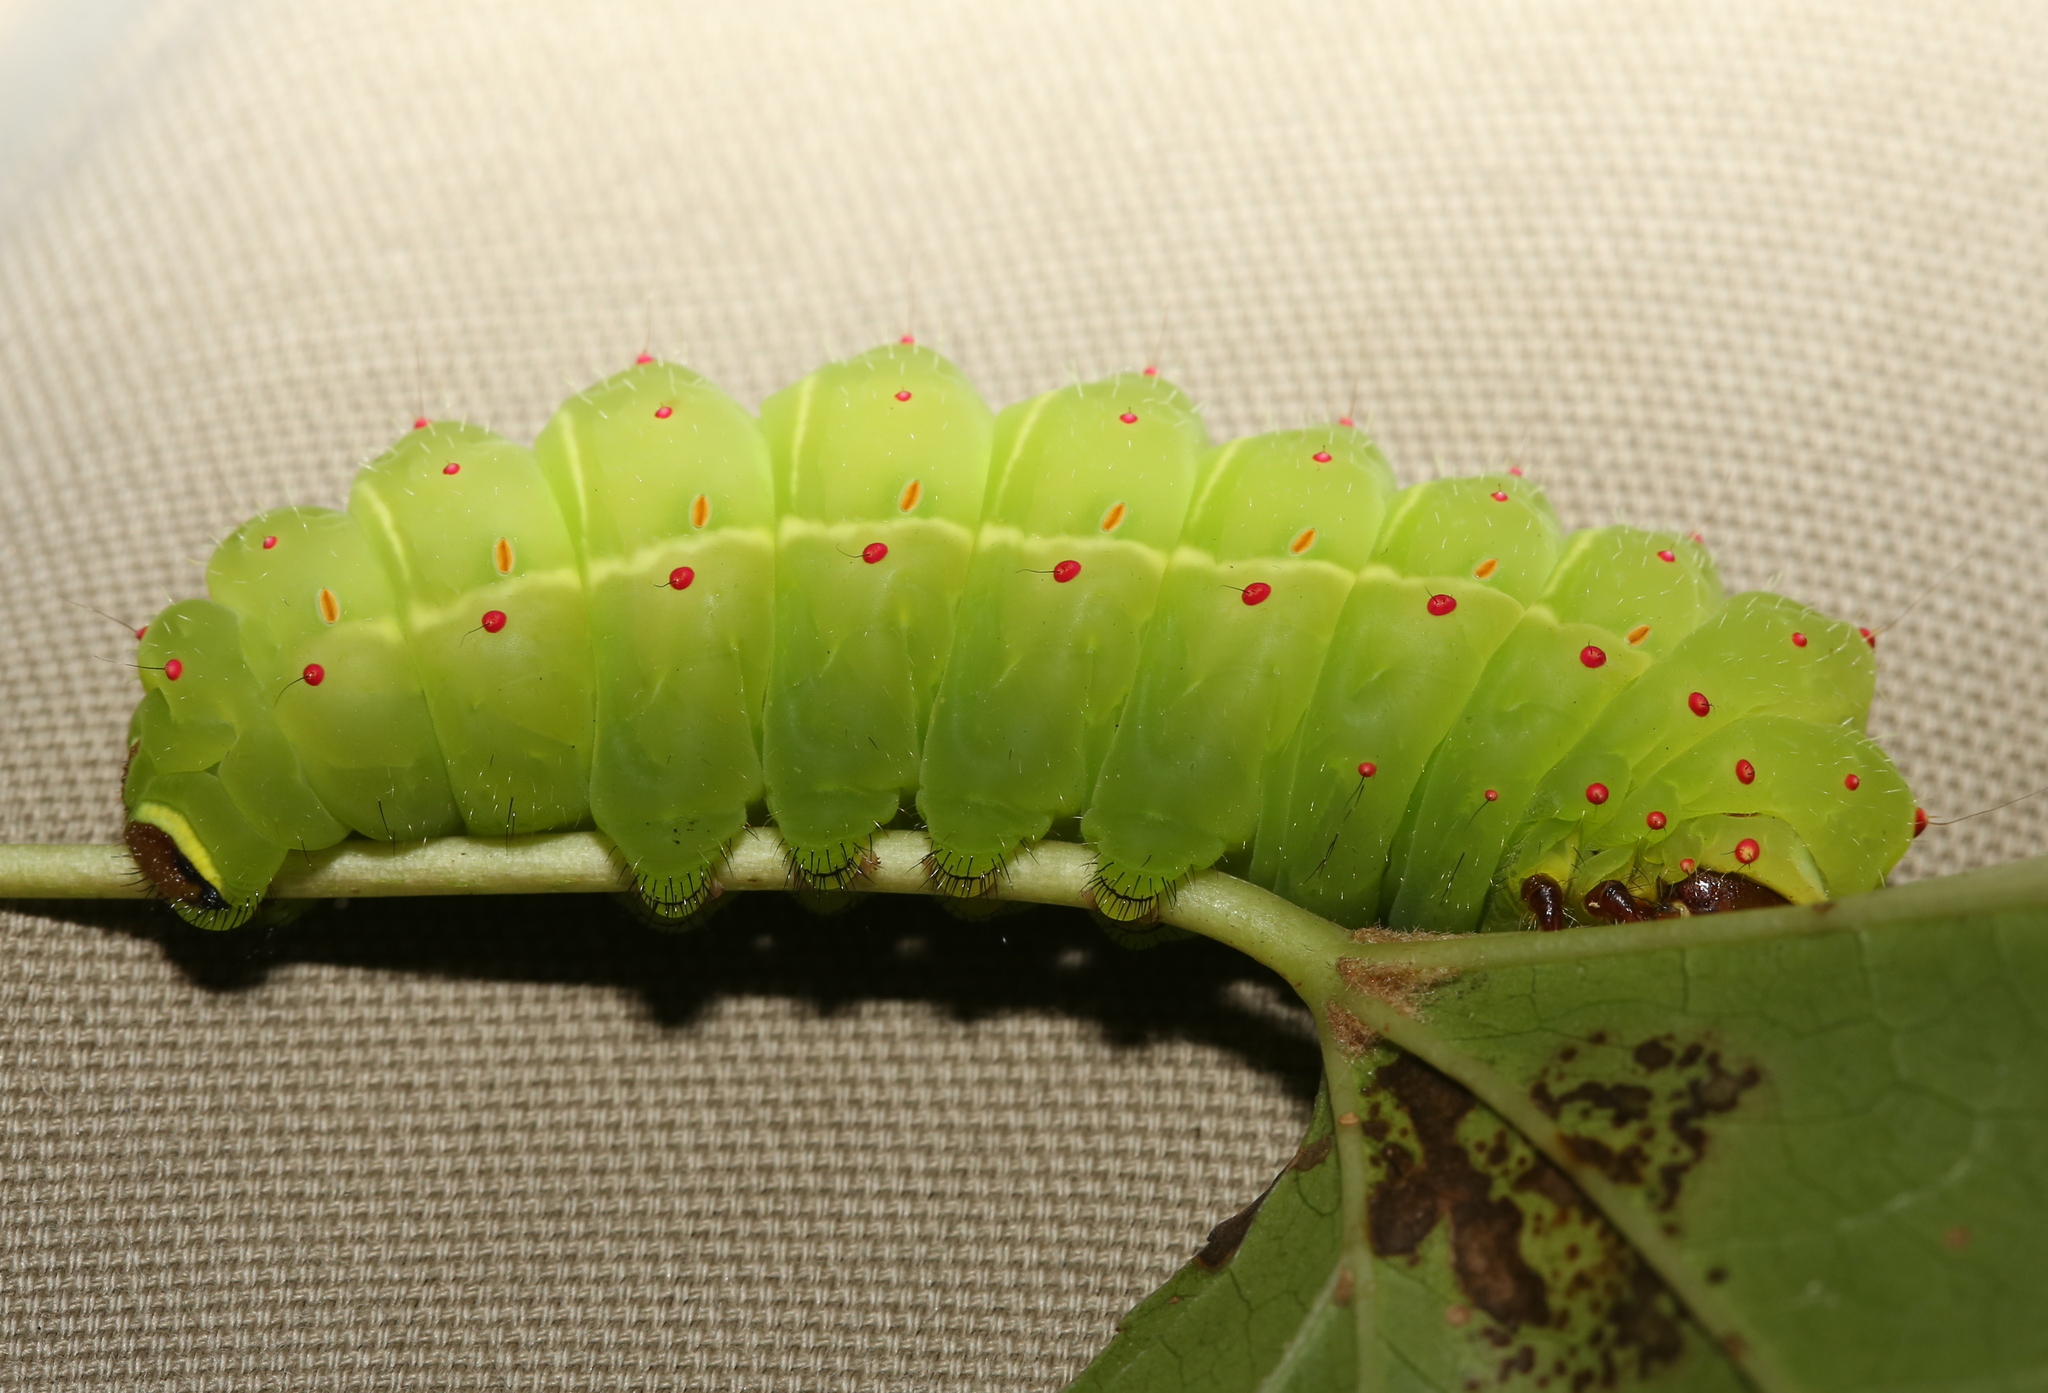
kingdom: Animalia
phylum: Arthropoda
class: Insecta
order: Lepidoptera
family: Saturniidae
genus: Actias
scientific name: Actias luna
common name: Luna moth
